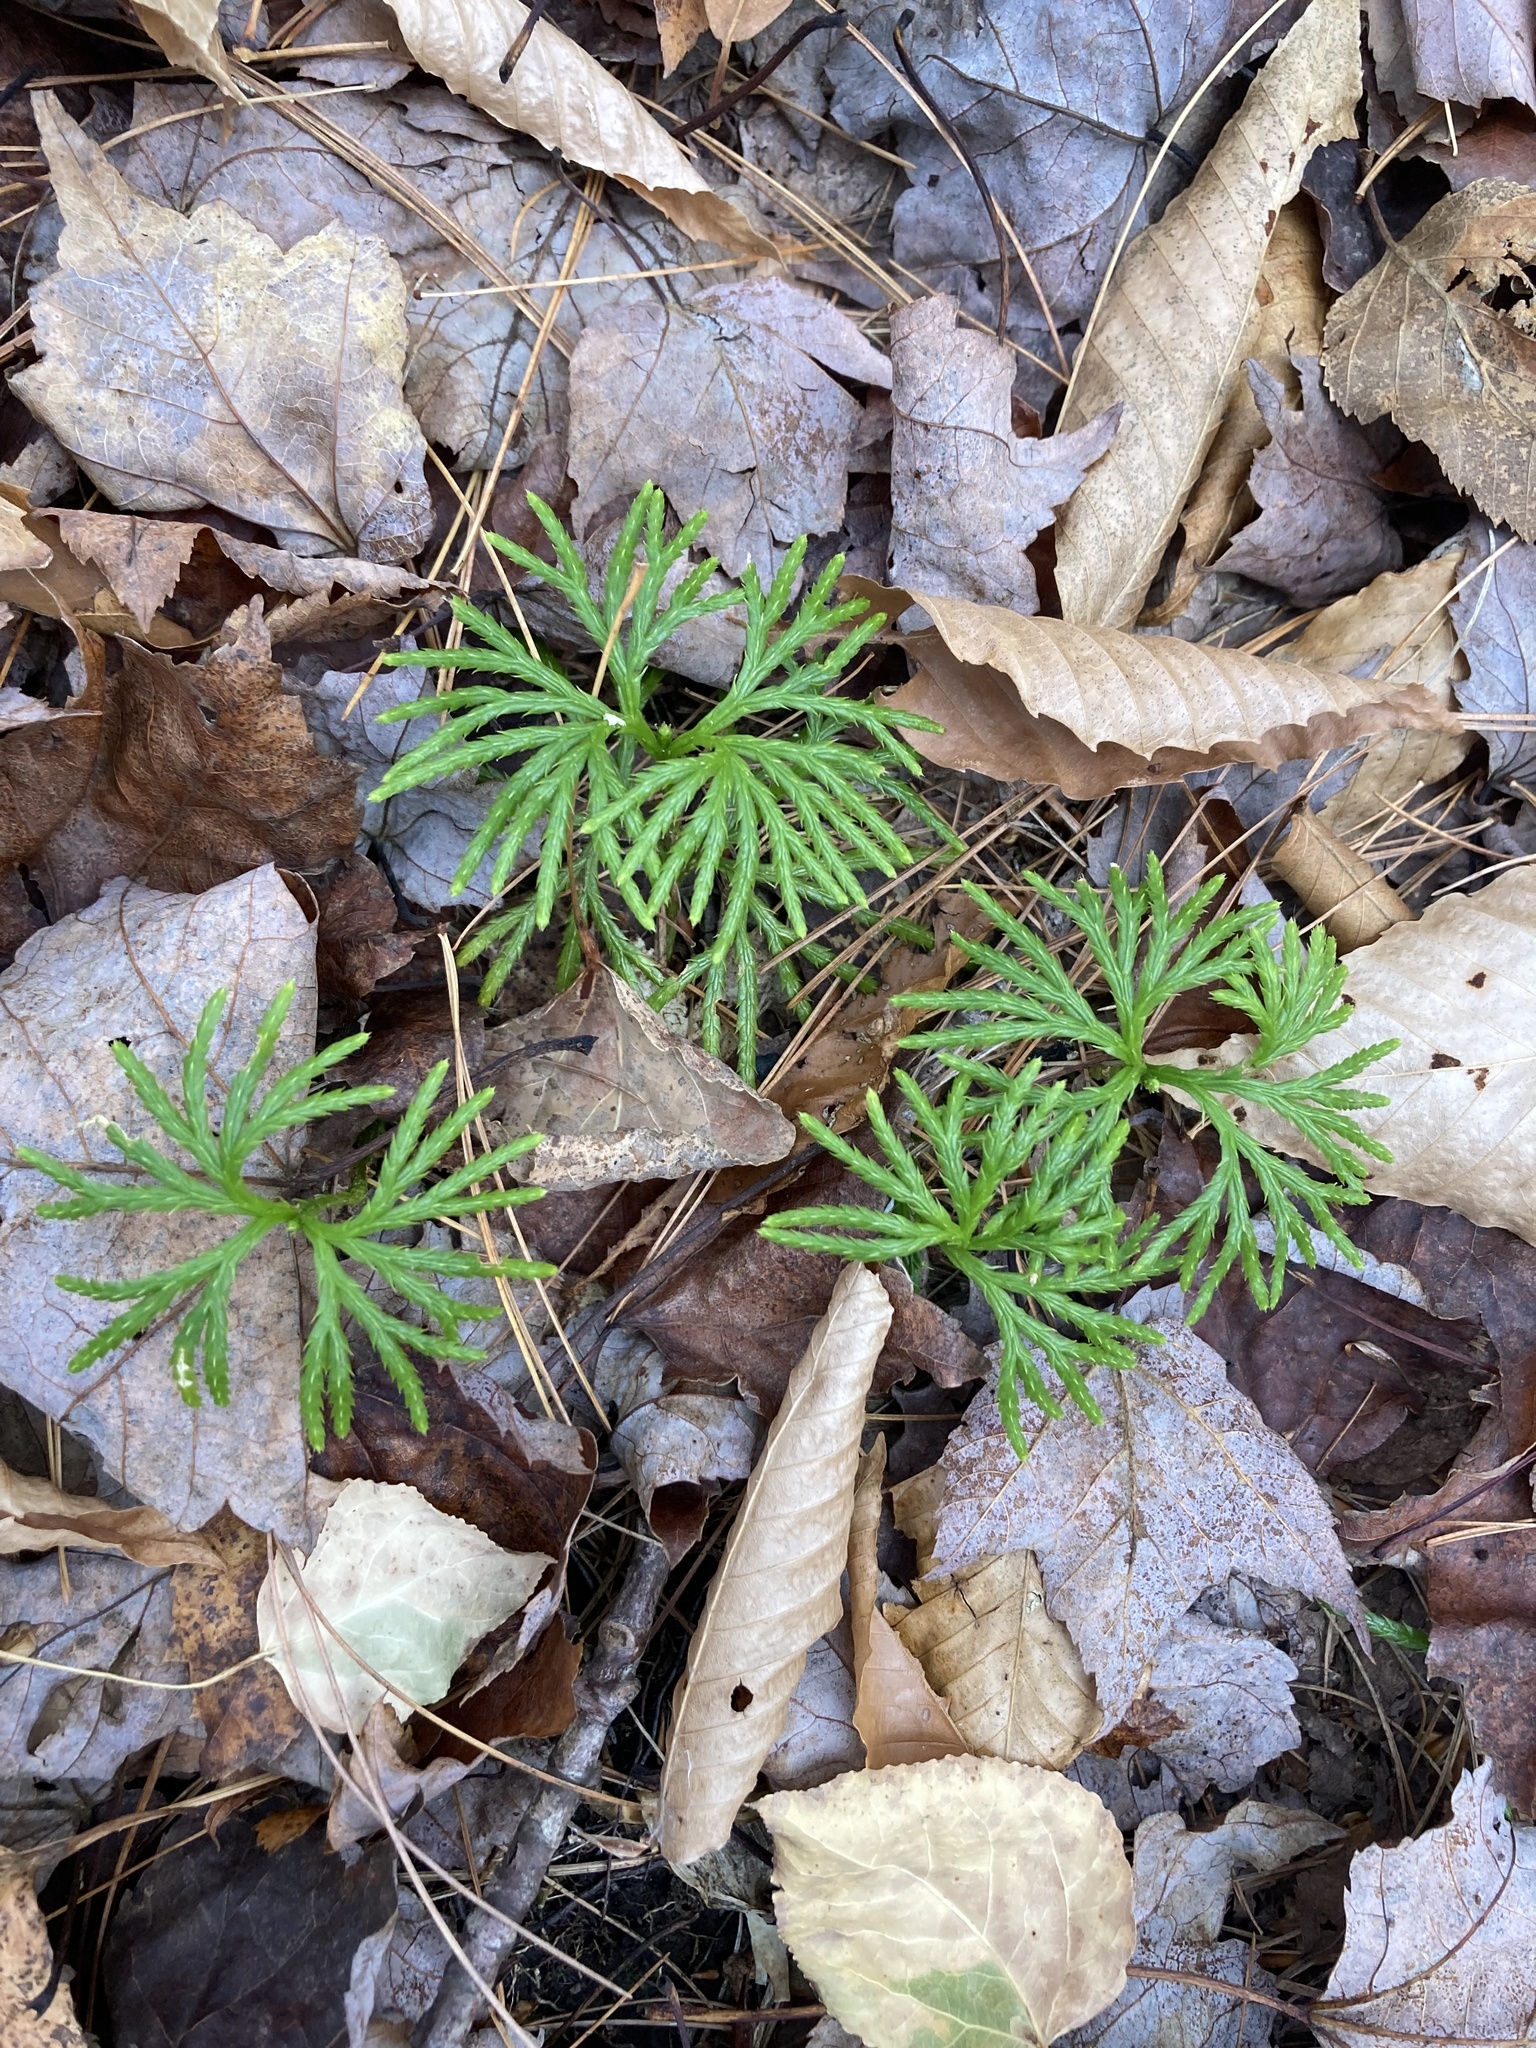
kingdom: Plantae
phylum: Tracheophyta
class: Lycopodiopsida
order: Lycopodiales
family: Lycopodiaceae
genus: Diphasiastrum
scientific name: Diphasiastrum digitatum
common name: Southern running-pine
